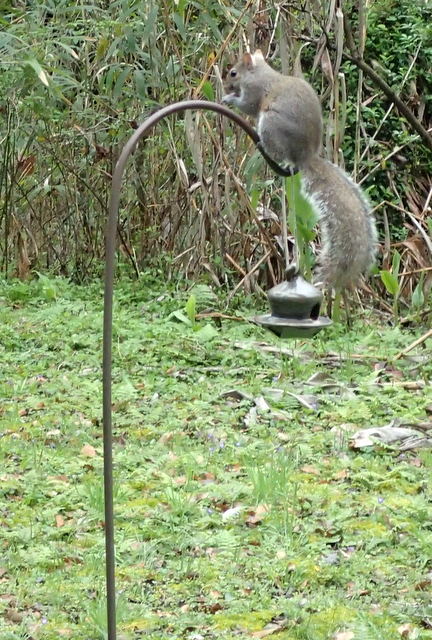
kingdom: Animalia
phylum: Chordata
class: Mammalia
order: Rodentia
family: Sciuridae
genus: Sciurus
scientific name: Sciurus carolinensis
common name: Eastern gray squirrel
